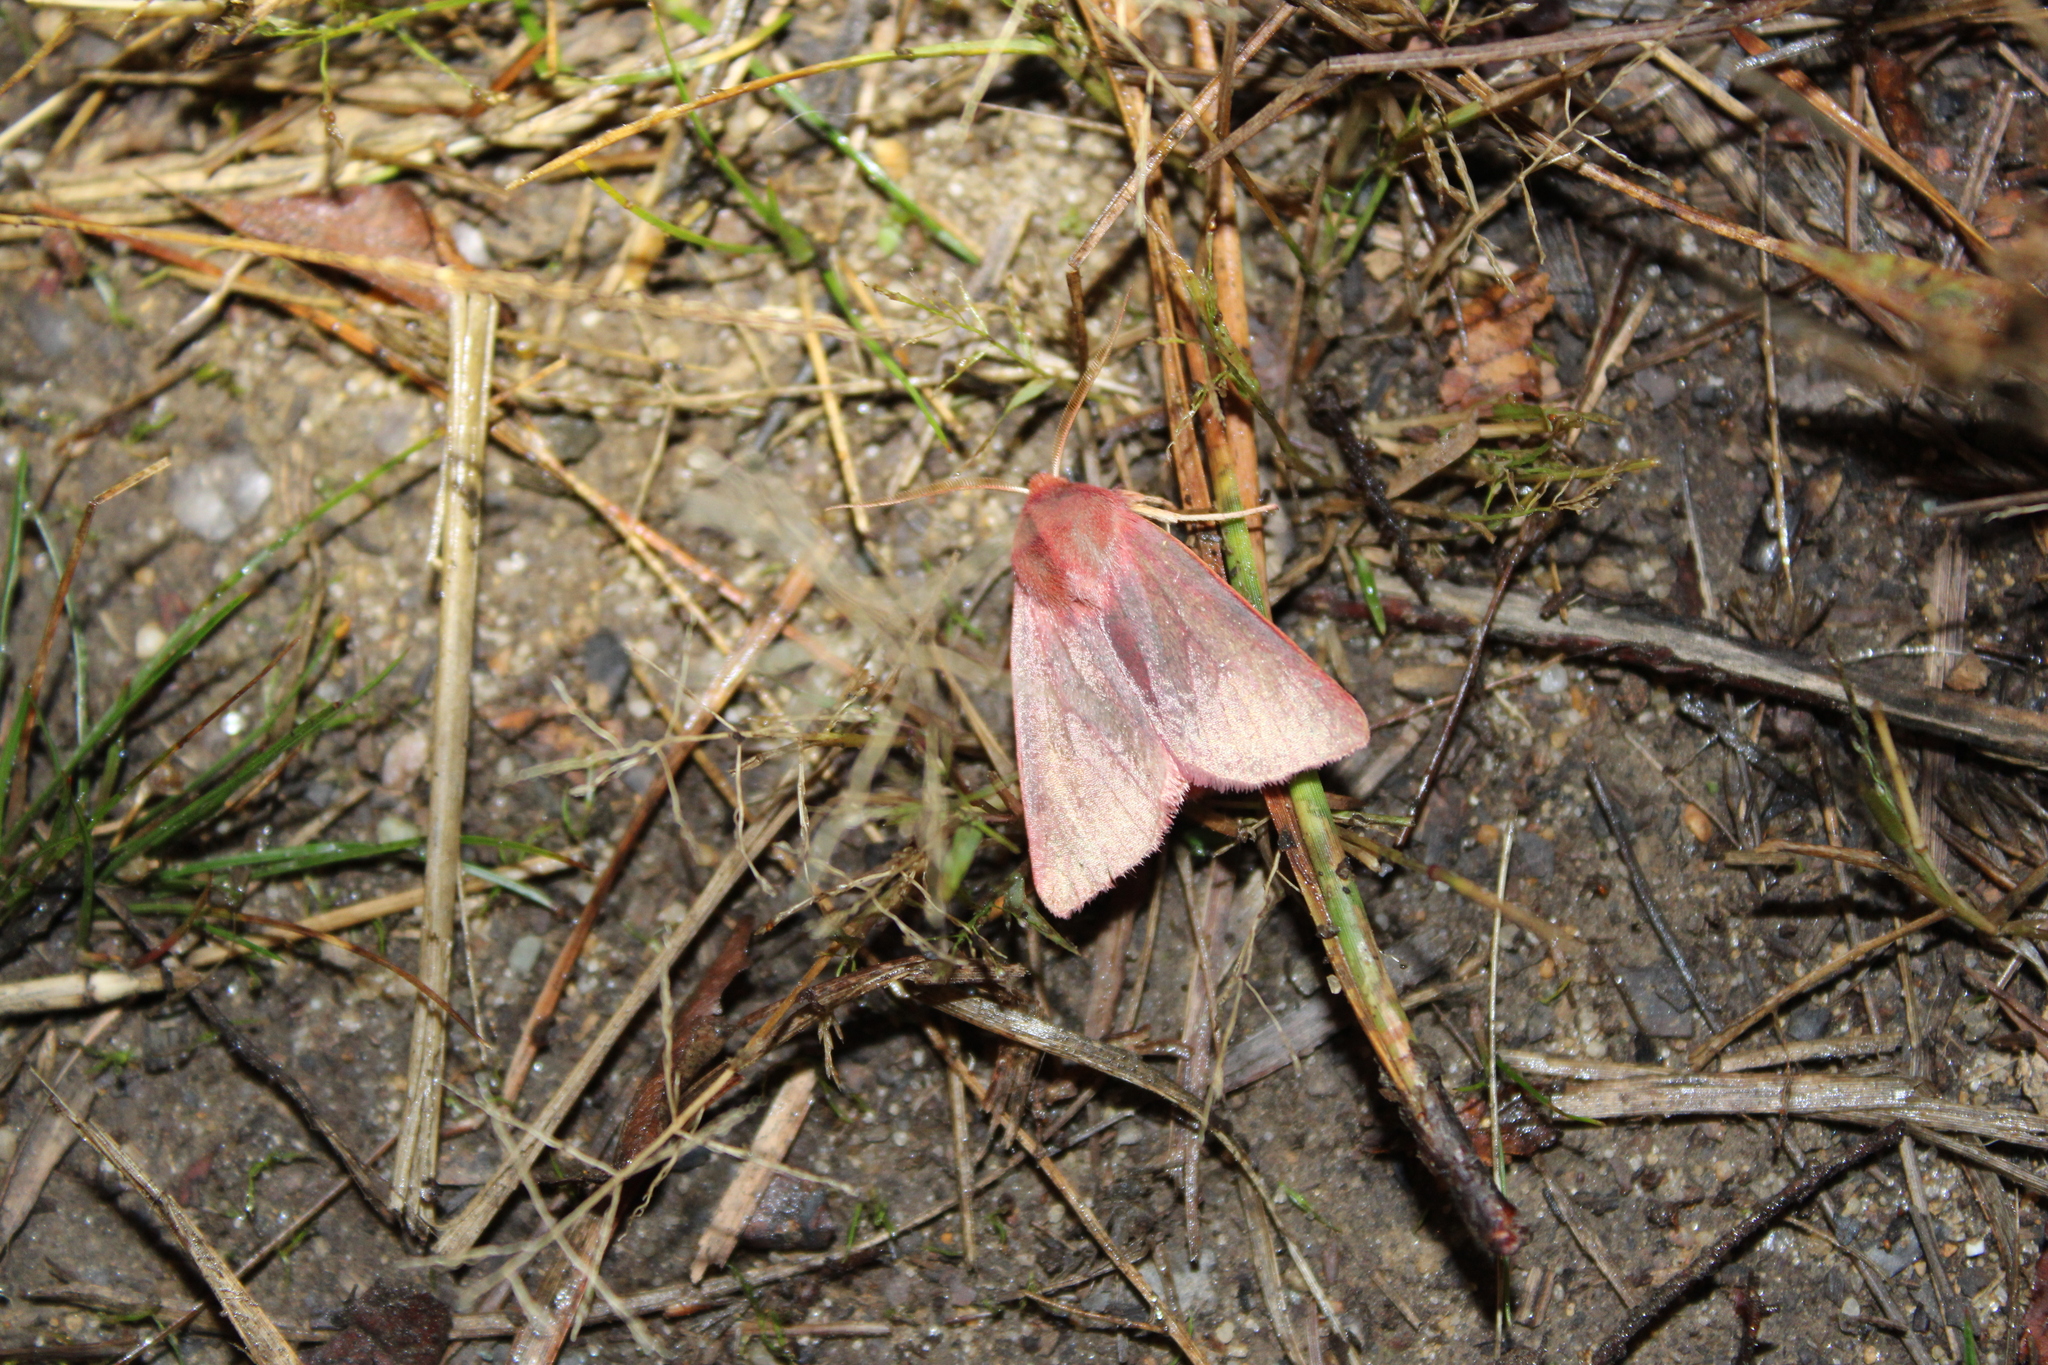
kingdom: Animalia
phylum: Arthropoda
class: Insecta
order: Lepidoptera
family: Noctuidae
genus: Psectraglaea
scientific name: Psectraglaea carnosa
